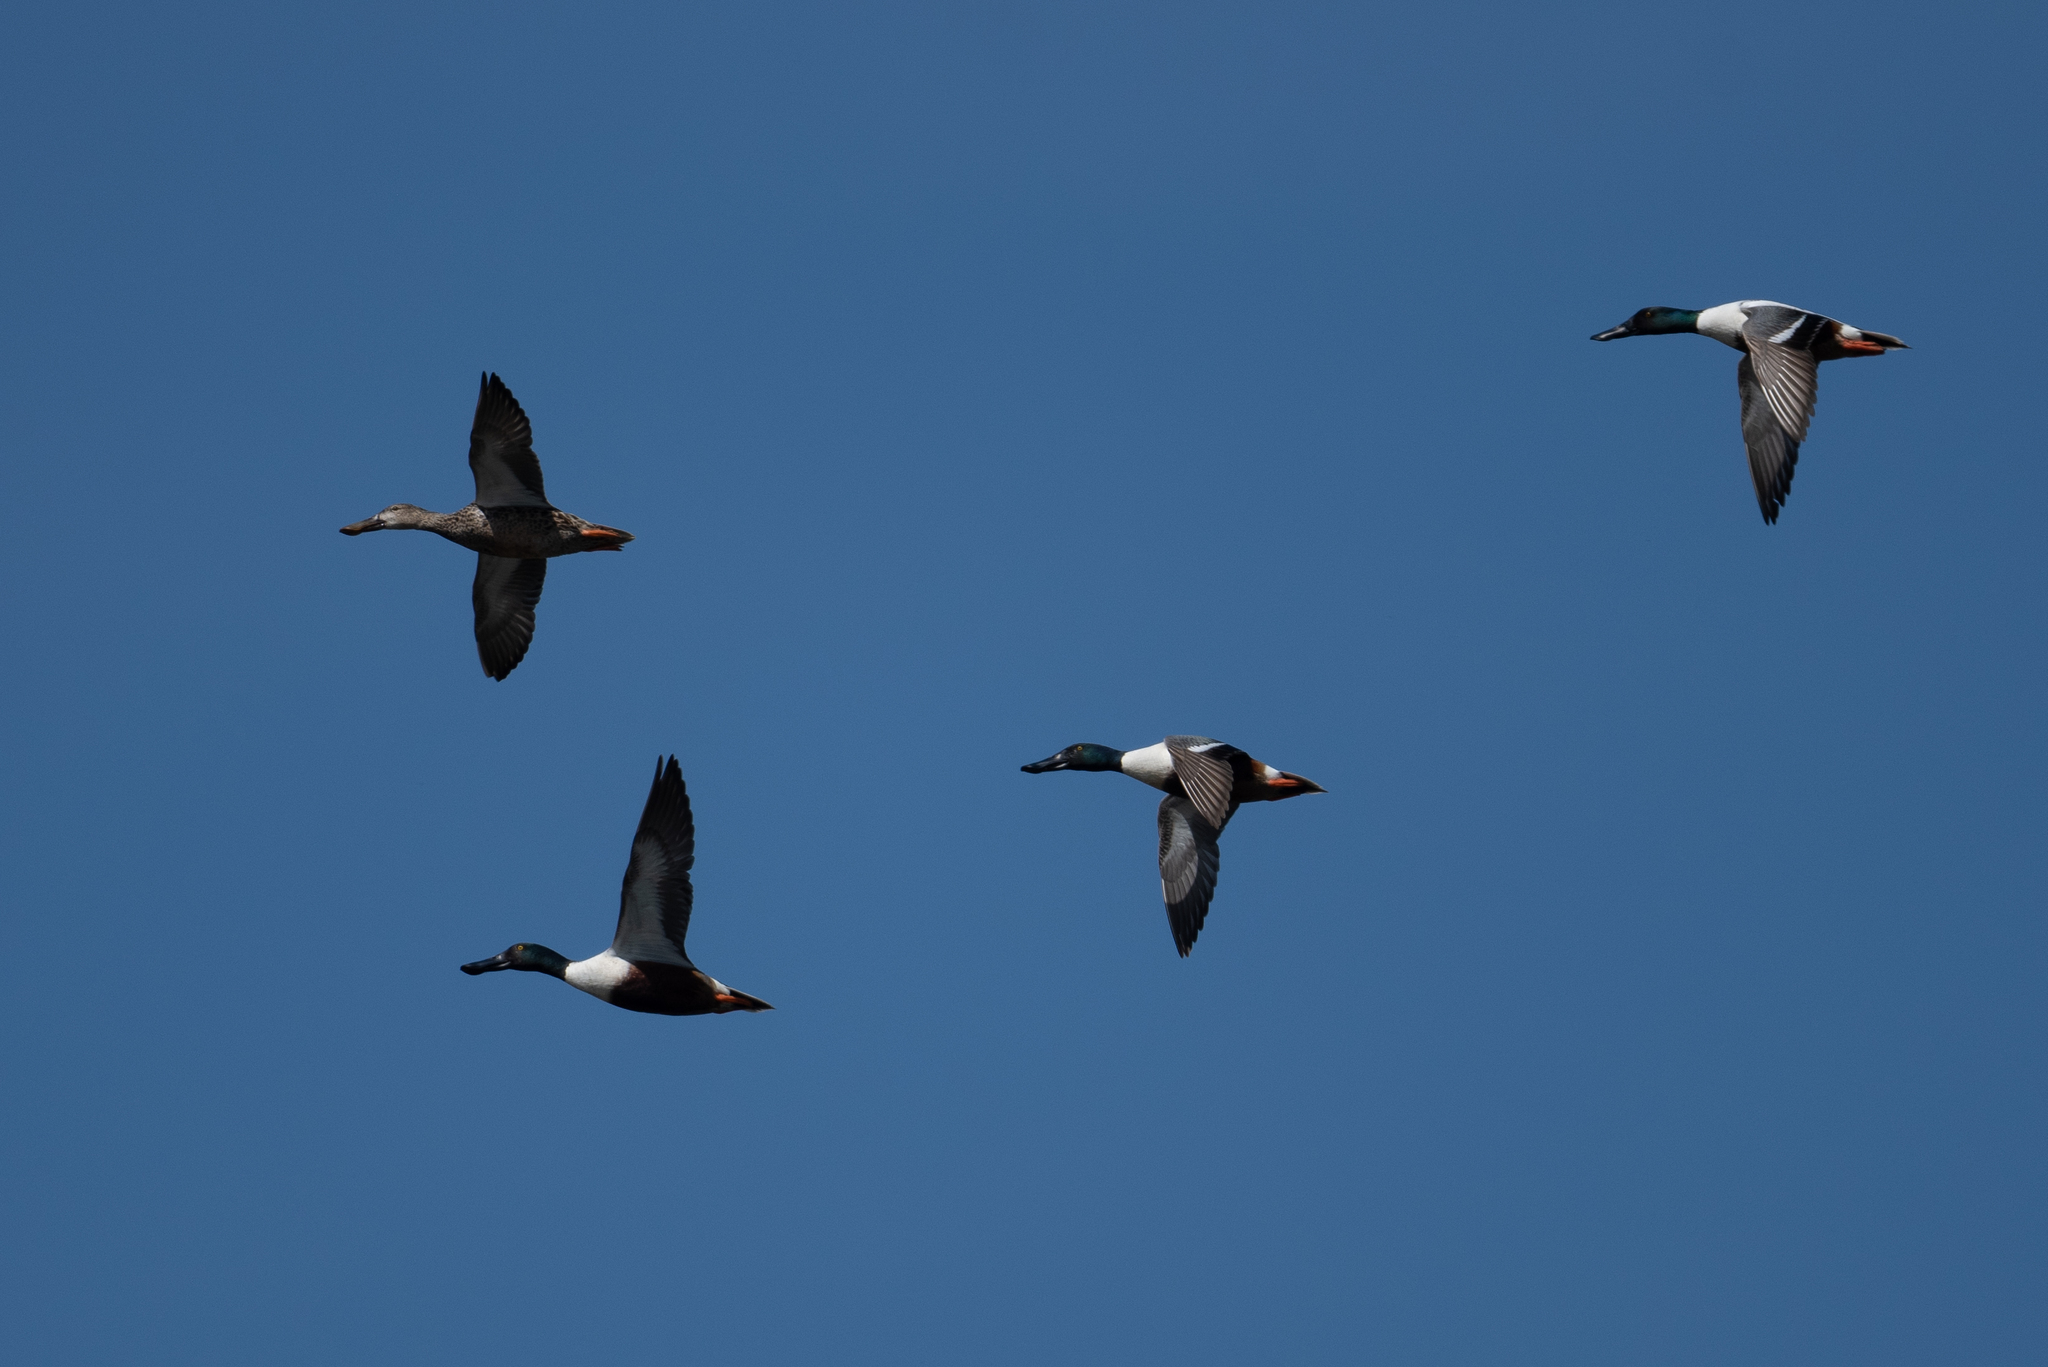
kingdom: Animalia
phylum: Chordata
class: Aves
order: Anseriformes
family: Anatidae
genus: Spatula
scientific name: Spatula clypeata
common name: Northern shoveler
